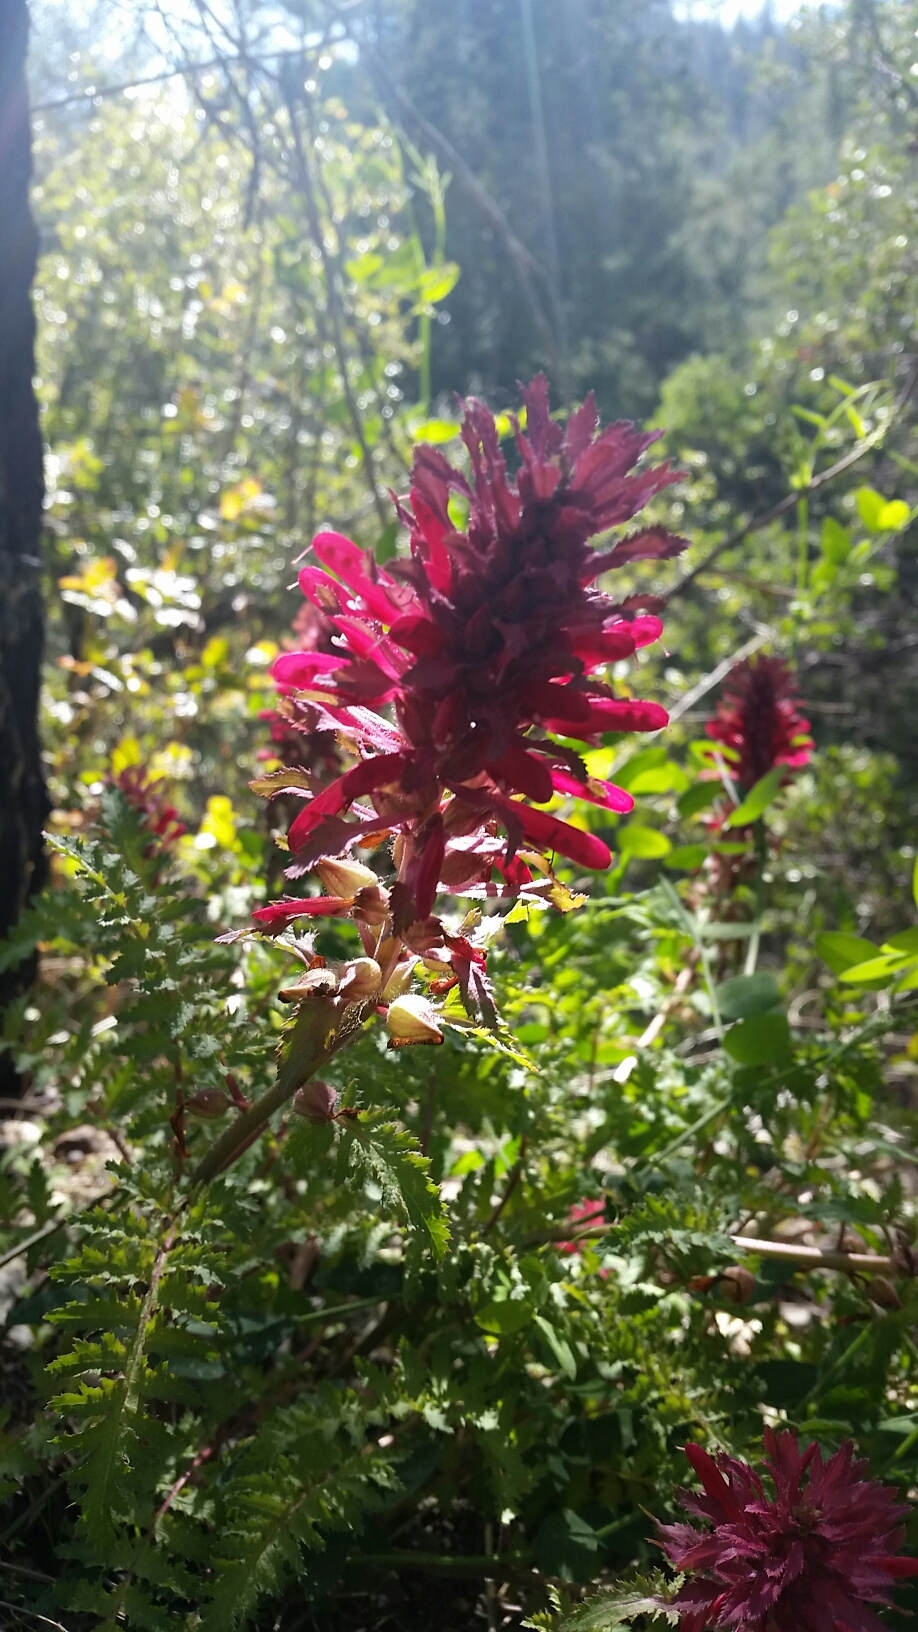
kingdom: Plantae
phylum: Tracheophyta
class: Magnoliopsida
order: Lamiales
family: Orobanchaceae
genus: Pedicularis
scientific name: Pedicularis densiflora
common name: Indian warrior
